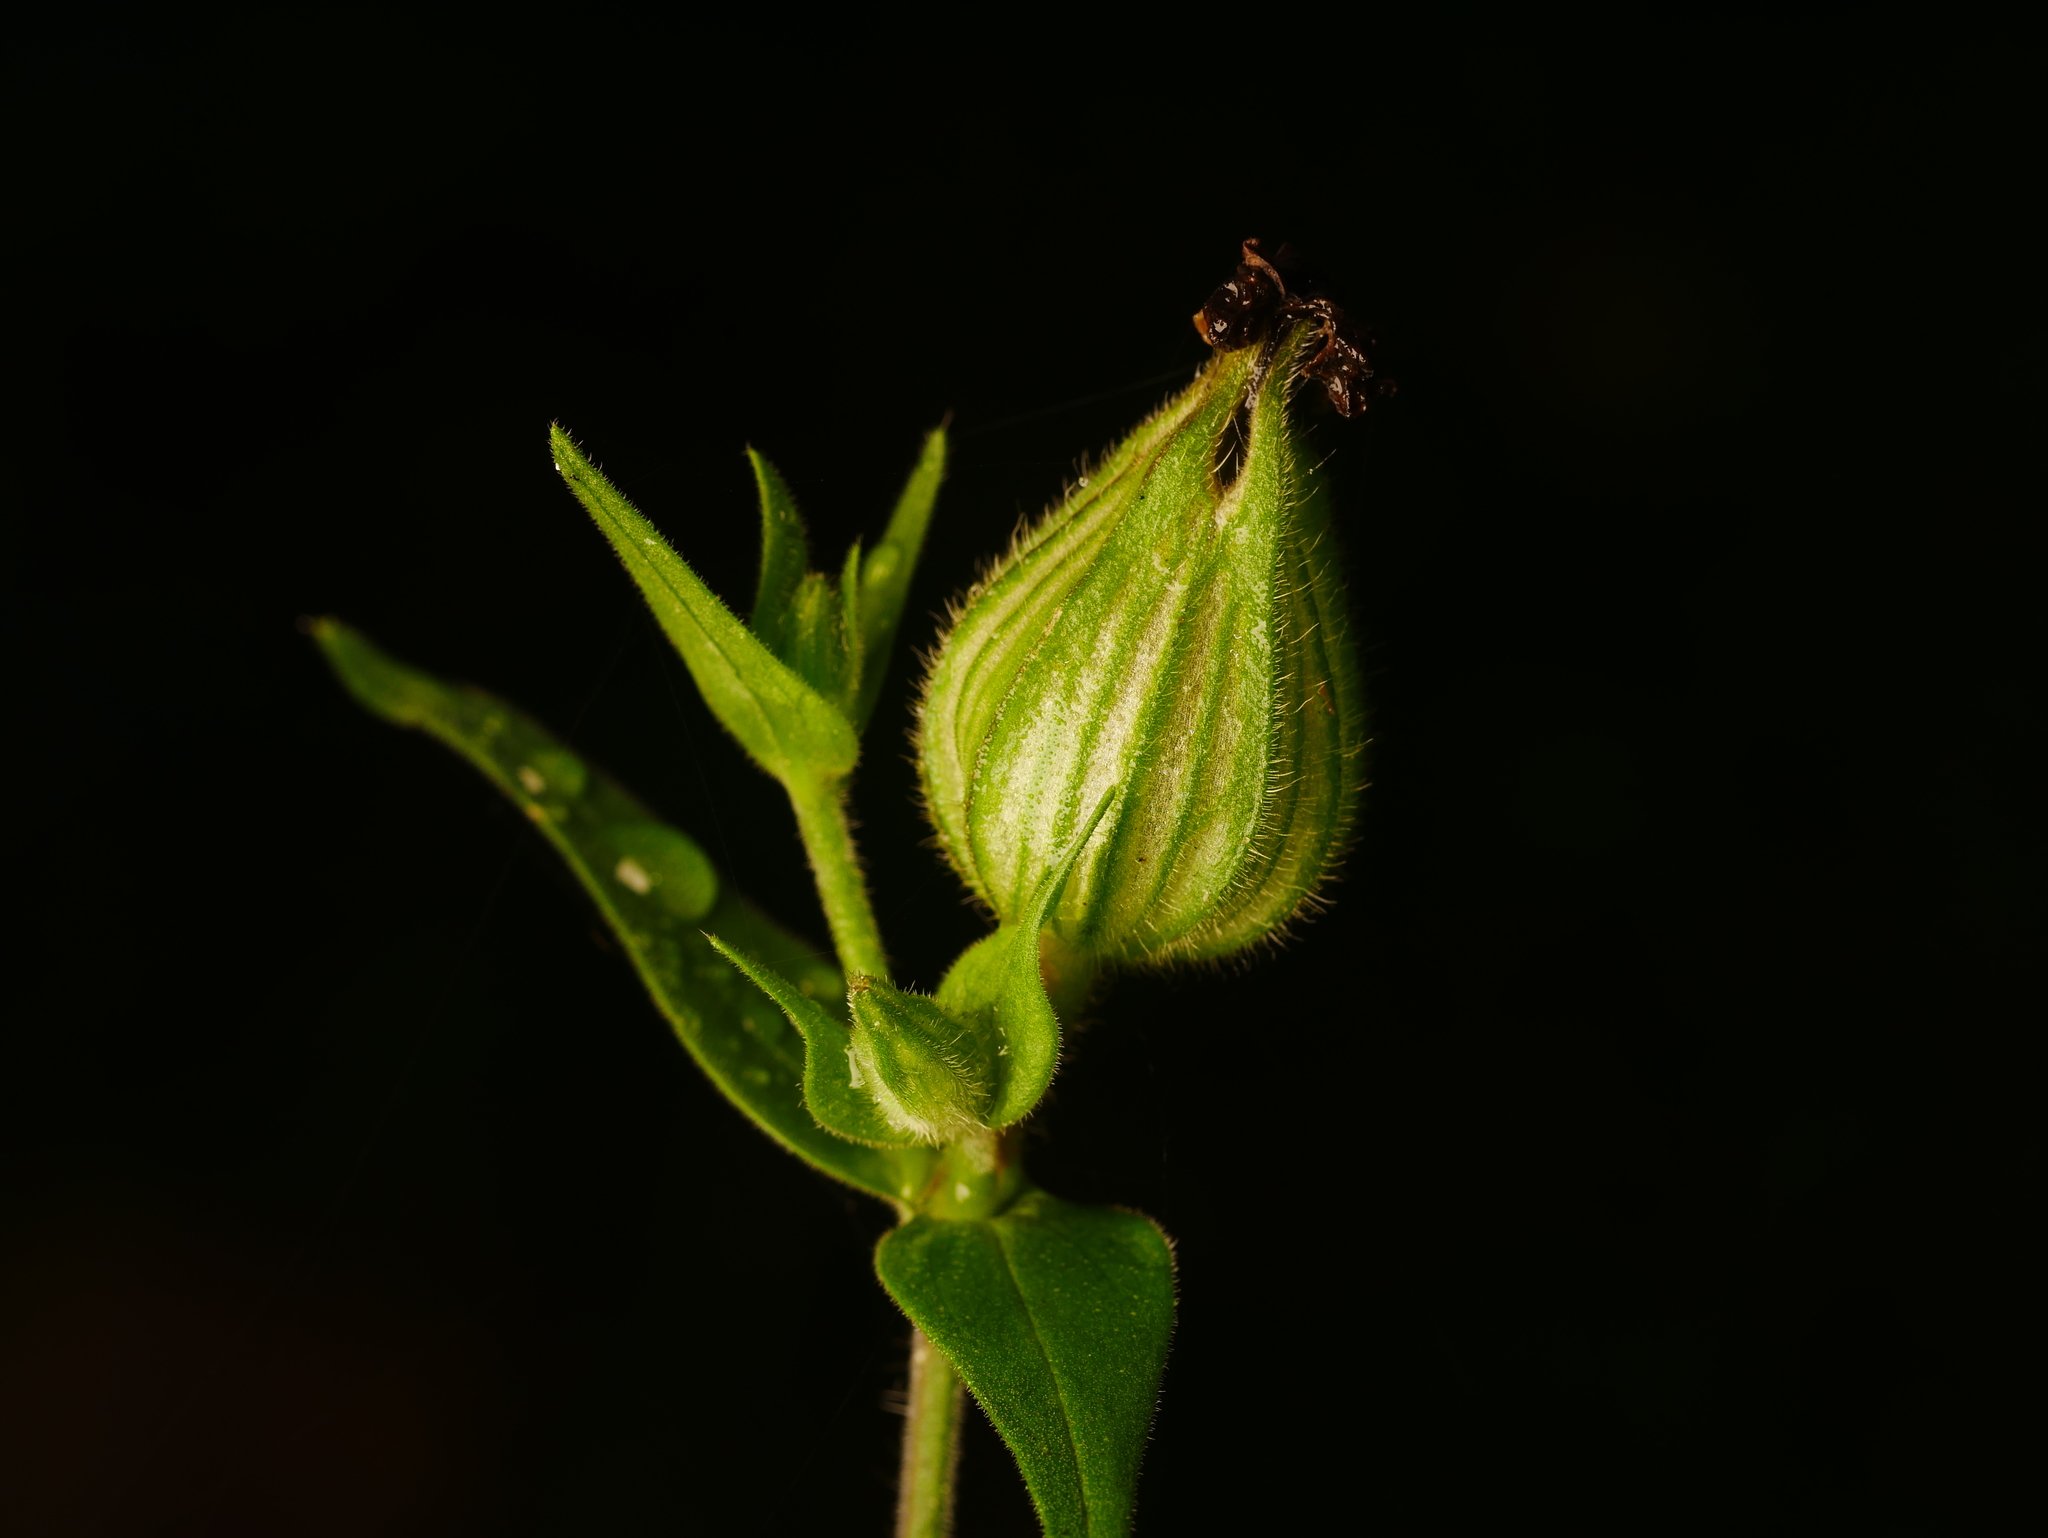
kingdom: Plantae
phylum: Tracheophyta
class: Magnoliopsida
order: Caryophyllales
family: Caryophyllaceae
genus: Silene
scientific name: Silene latifolia
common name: White campion
